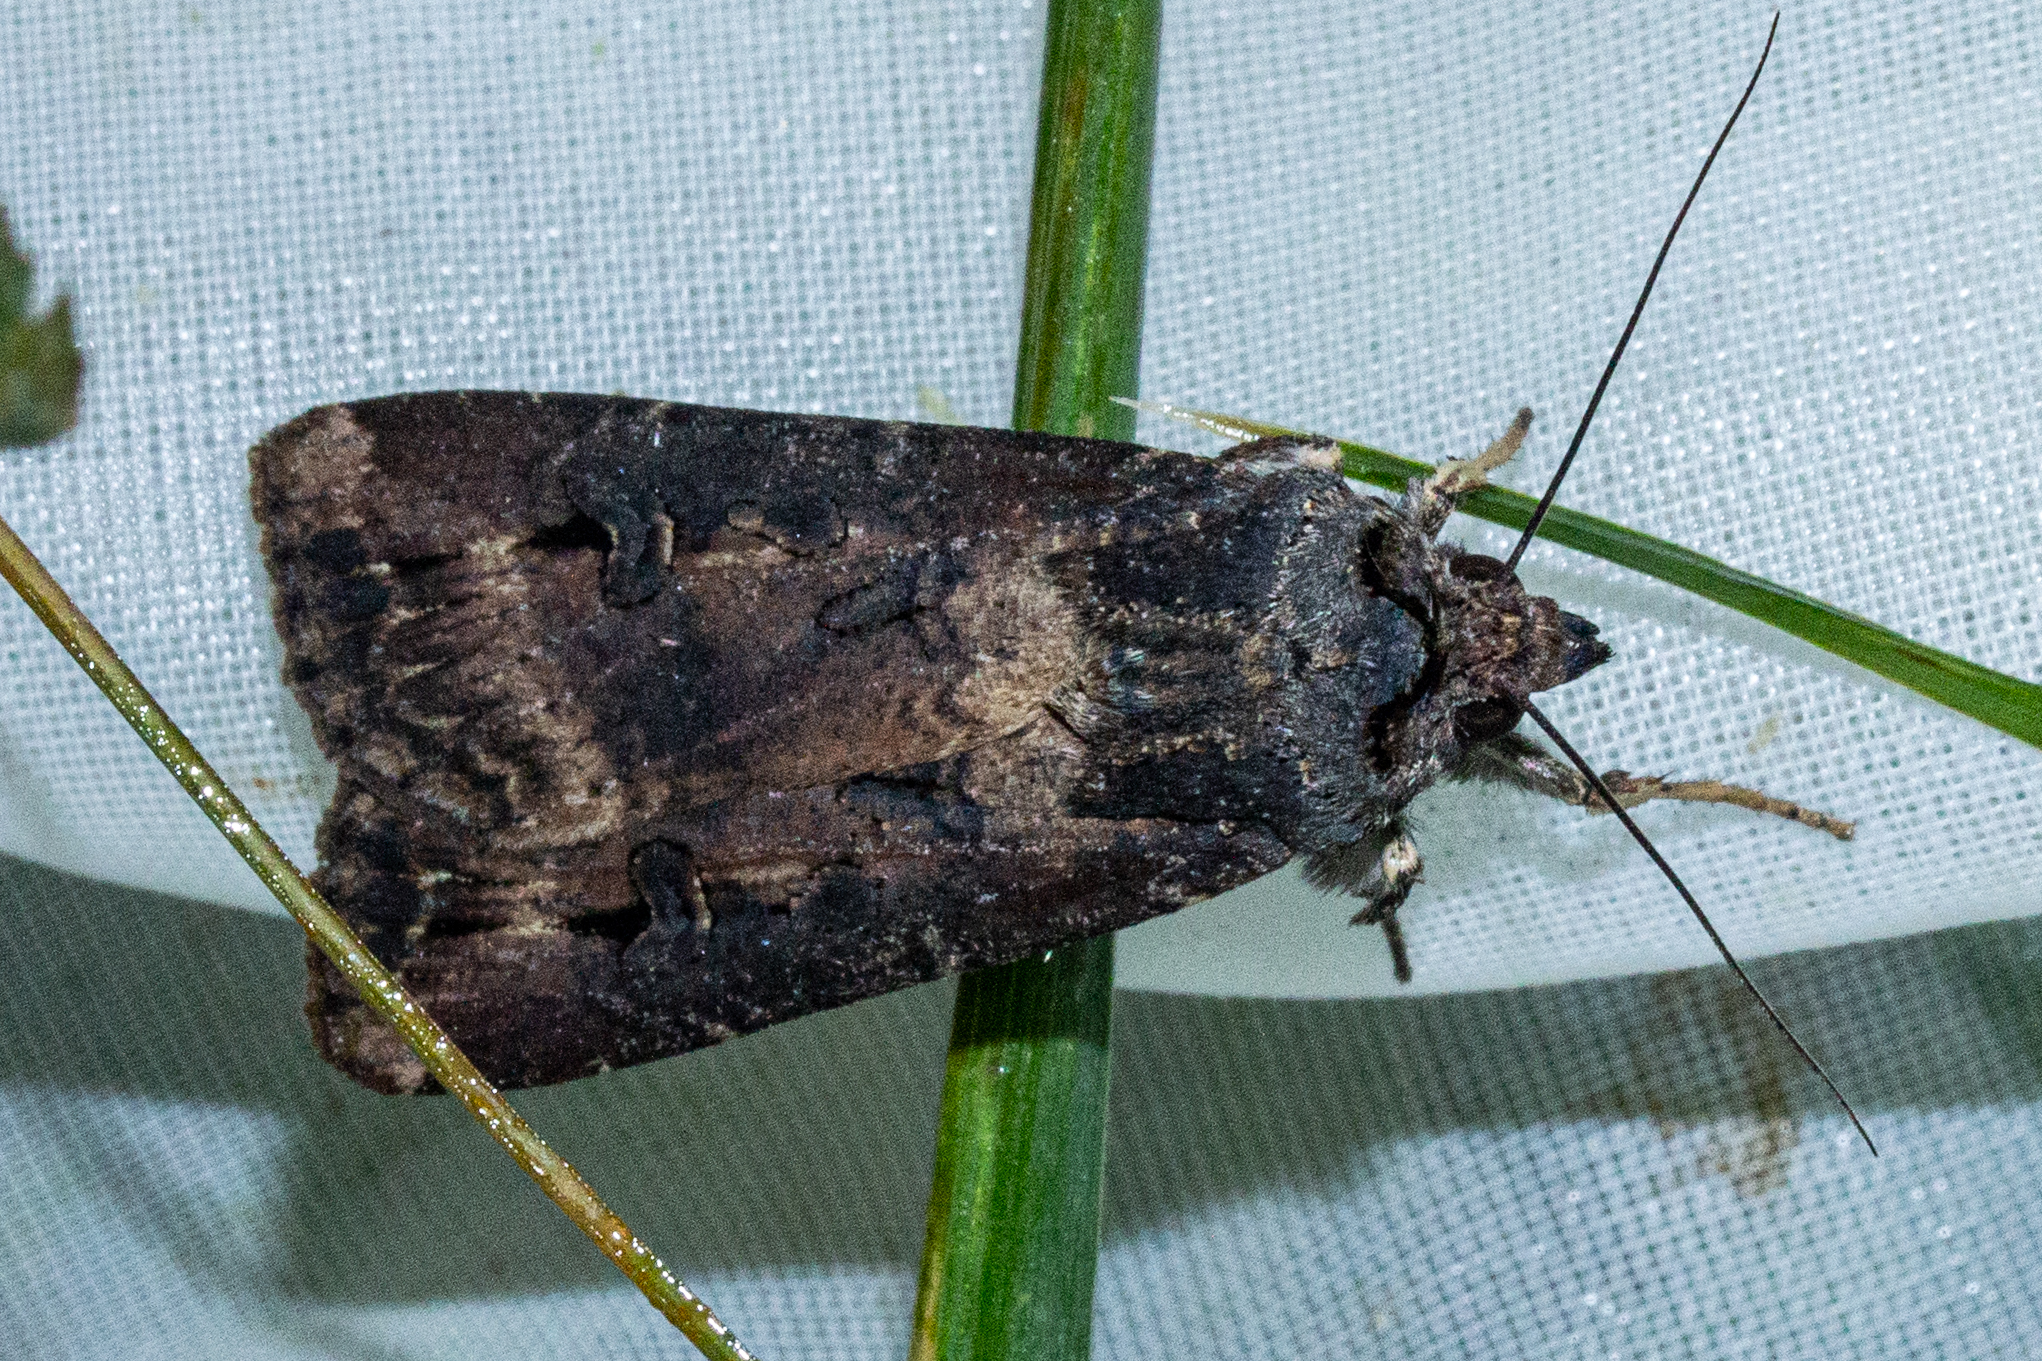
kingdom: Animalia
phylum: Arthropoda
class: Insecta
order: Lepidoptera
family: Noctuidae
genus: Agrotis
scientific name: Agrotis ipsilon
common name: Dark sword-grass
